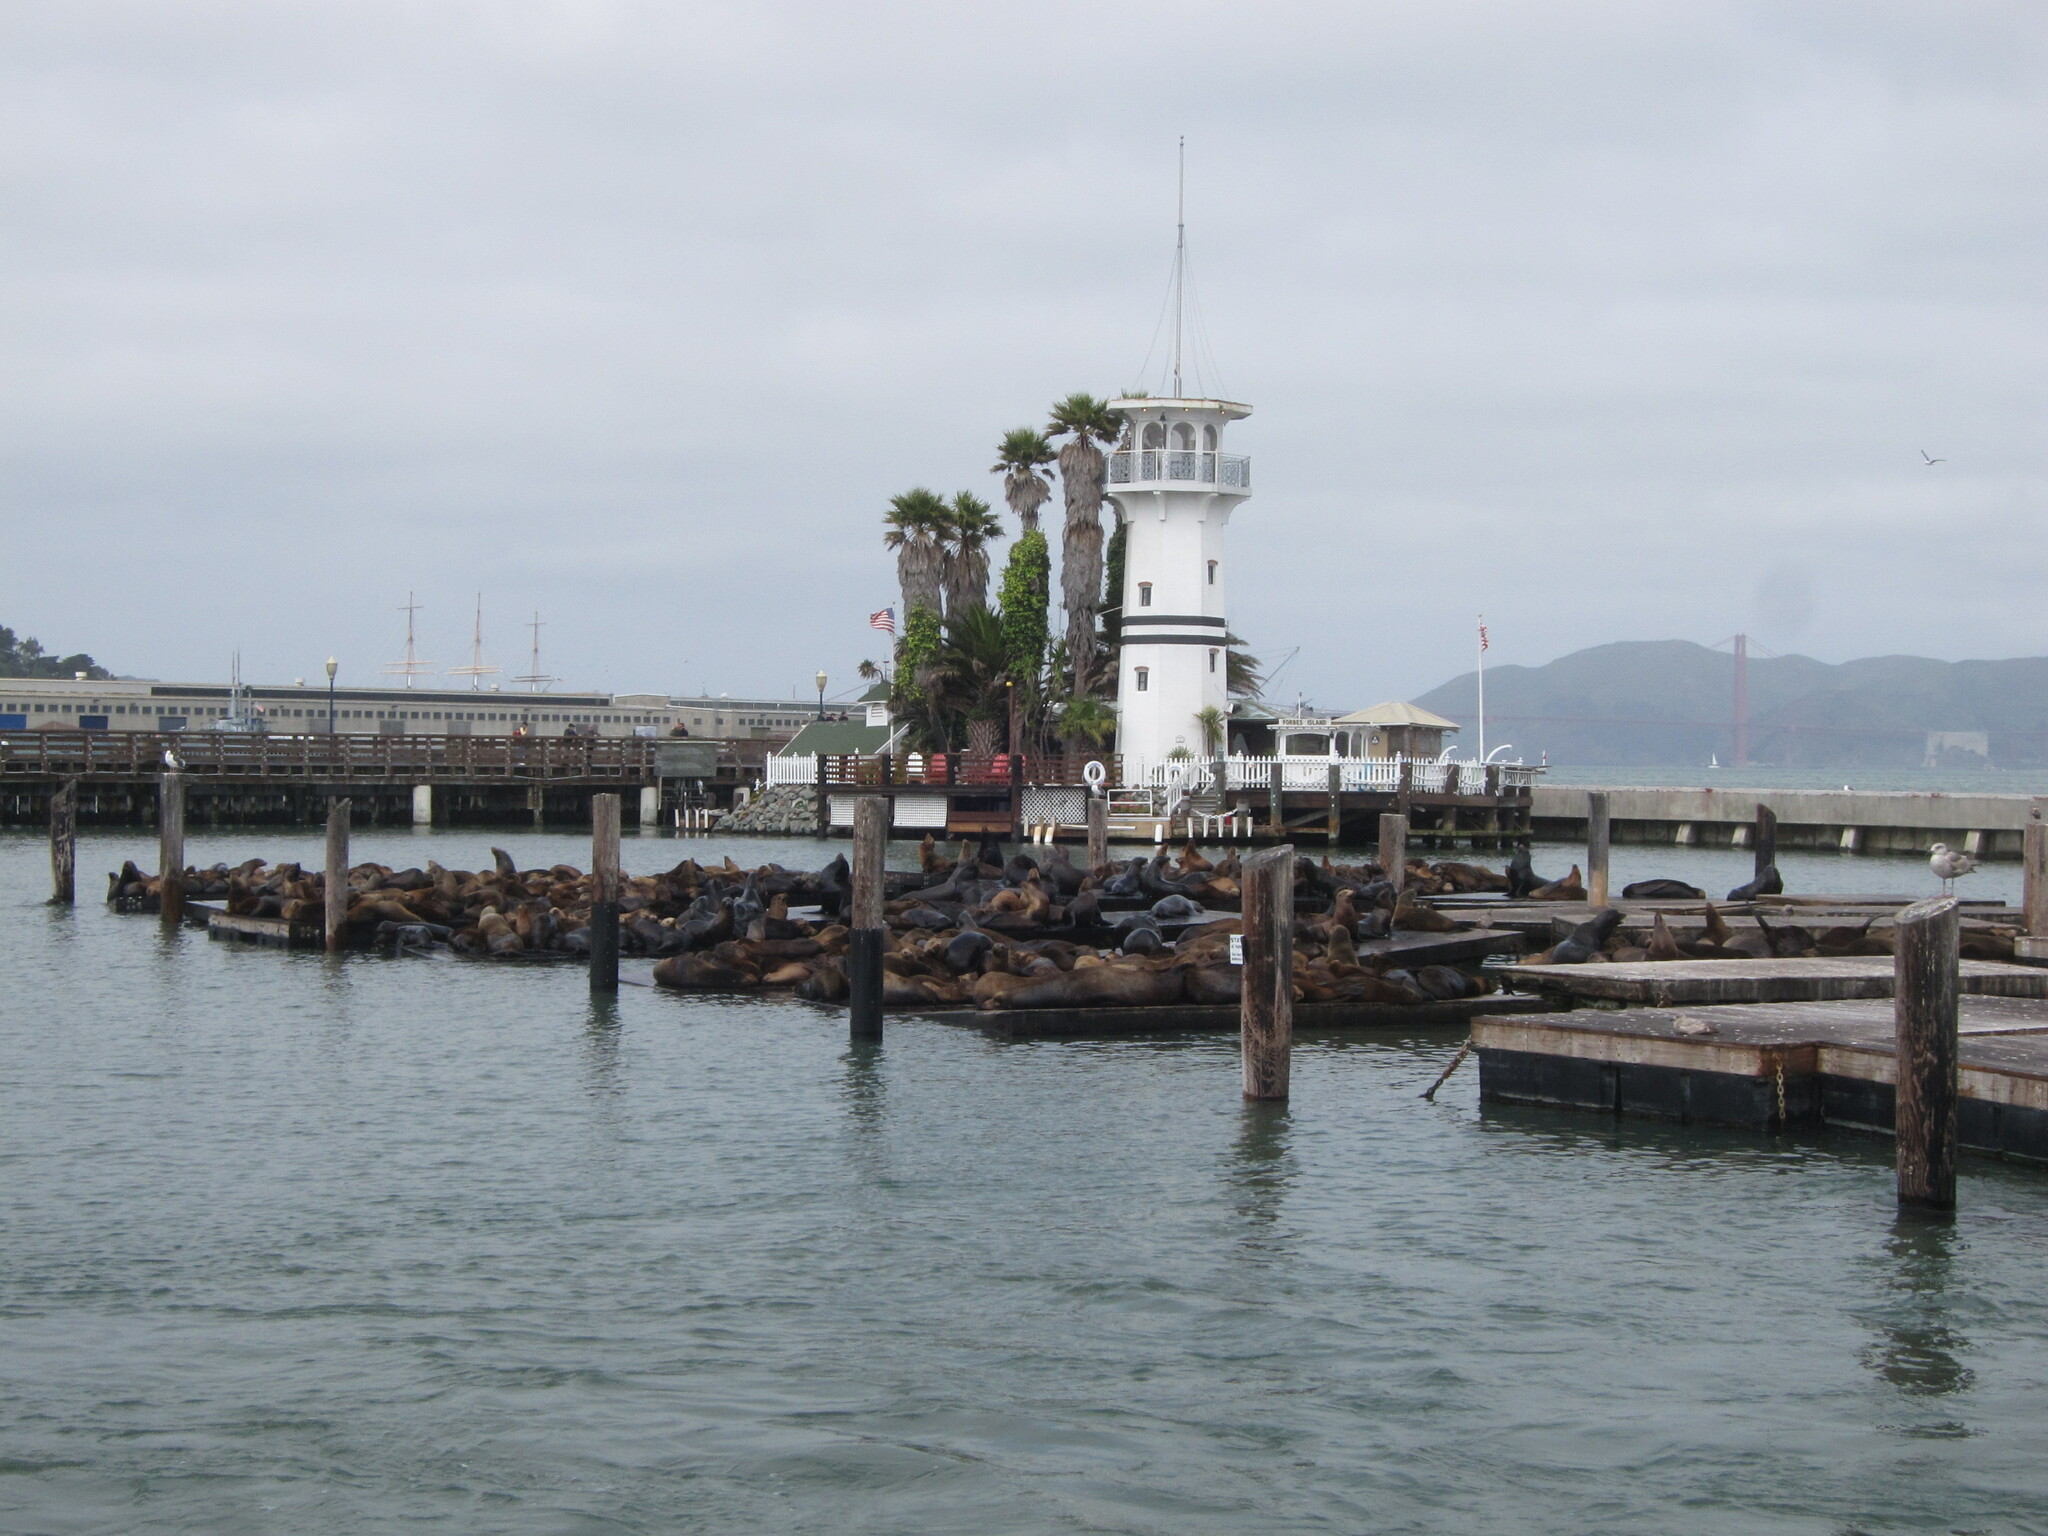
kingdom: Animalia
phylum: Chordata
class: Mammalia
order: Carnivora
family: Otariidae
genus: Zalophus
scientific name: Zalophus californianus
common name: California sea lion
